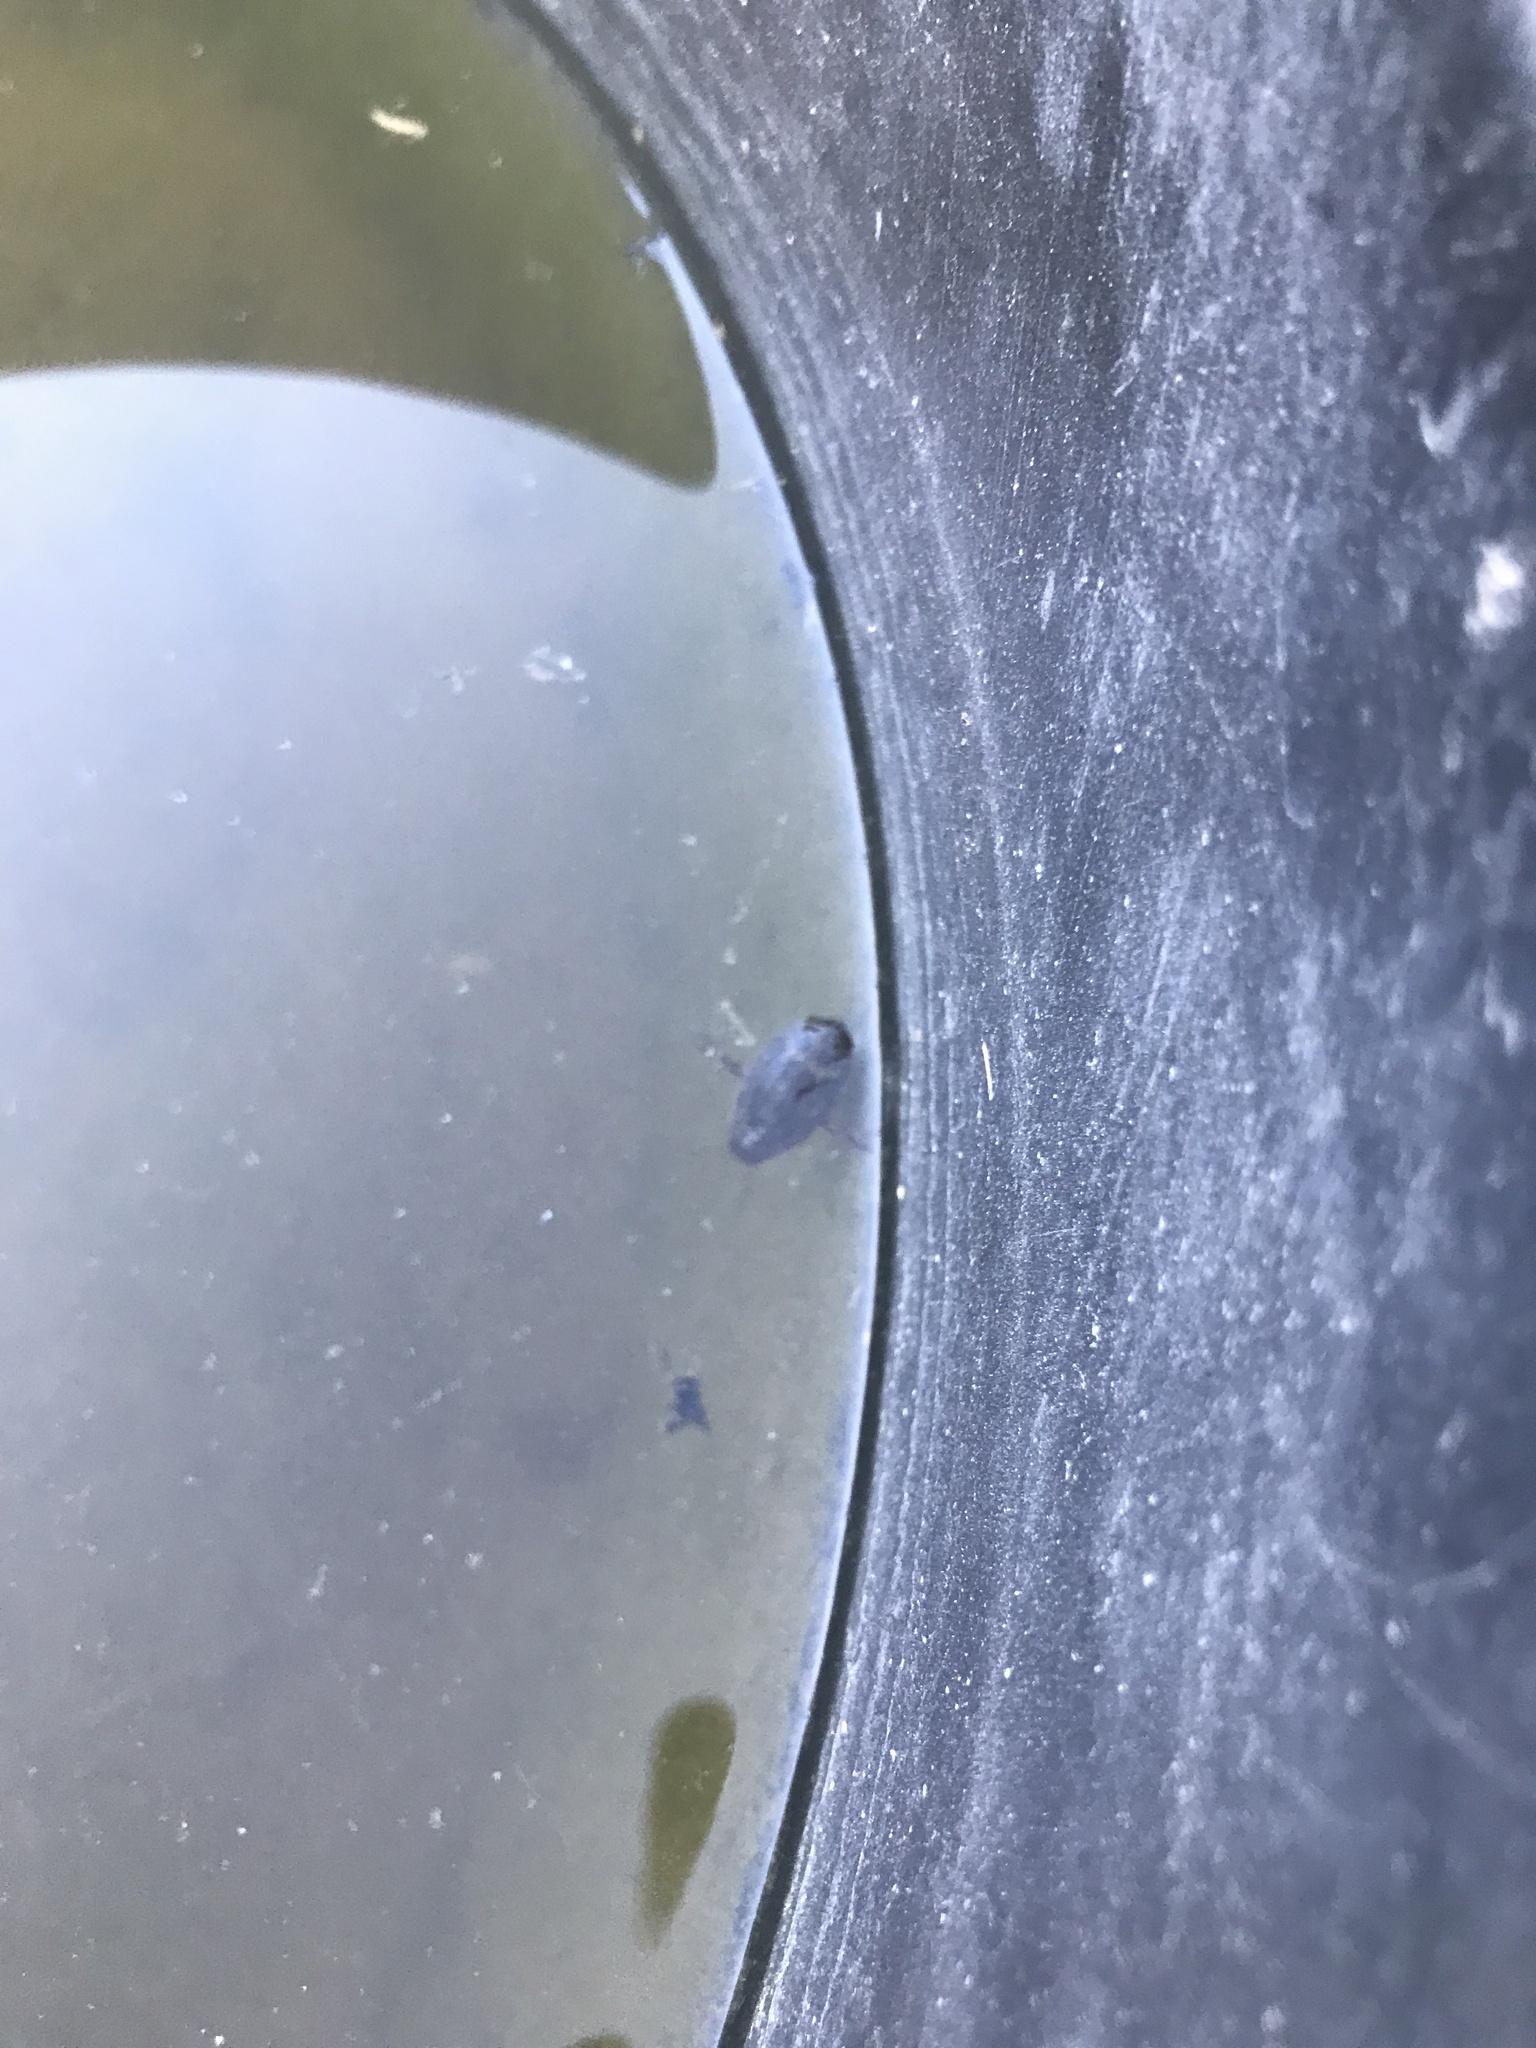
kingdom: Animalia
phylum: Arthropoda
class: Insecta
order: Coleoptera
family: Dytiscidae
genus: Acilius
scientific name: Acilius abbreviatus
